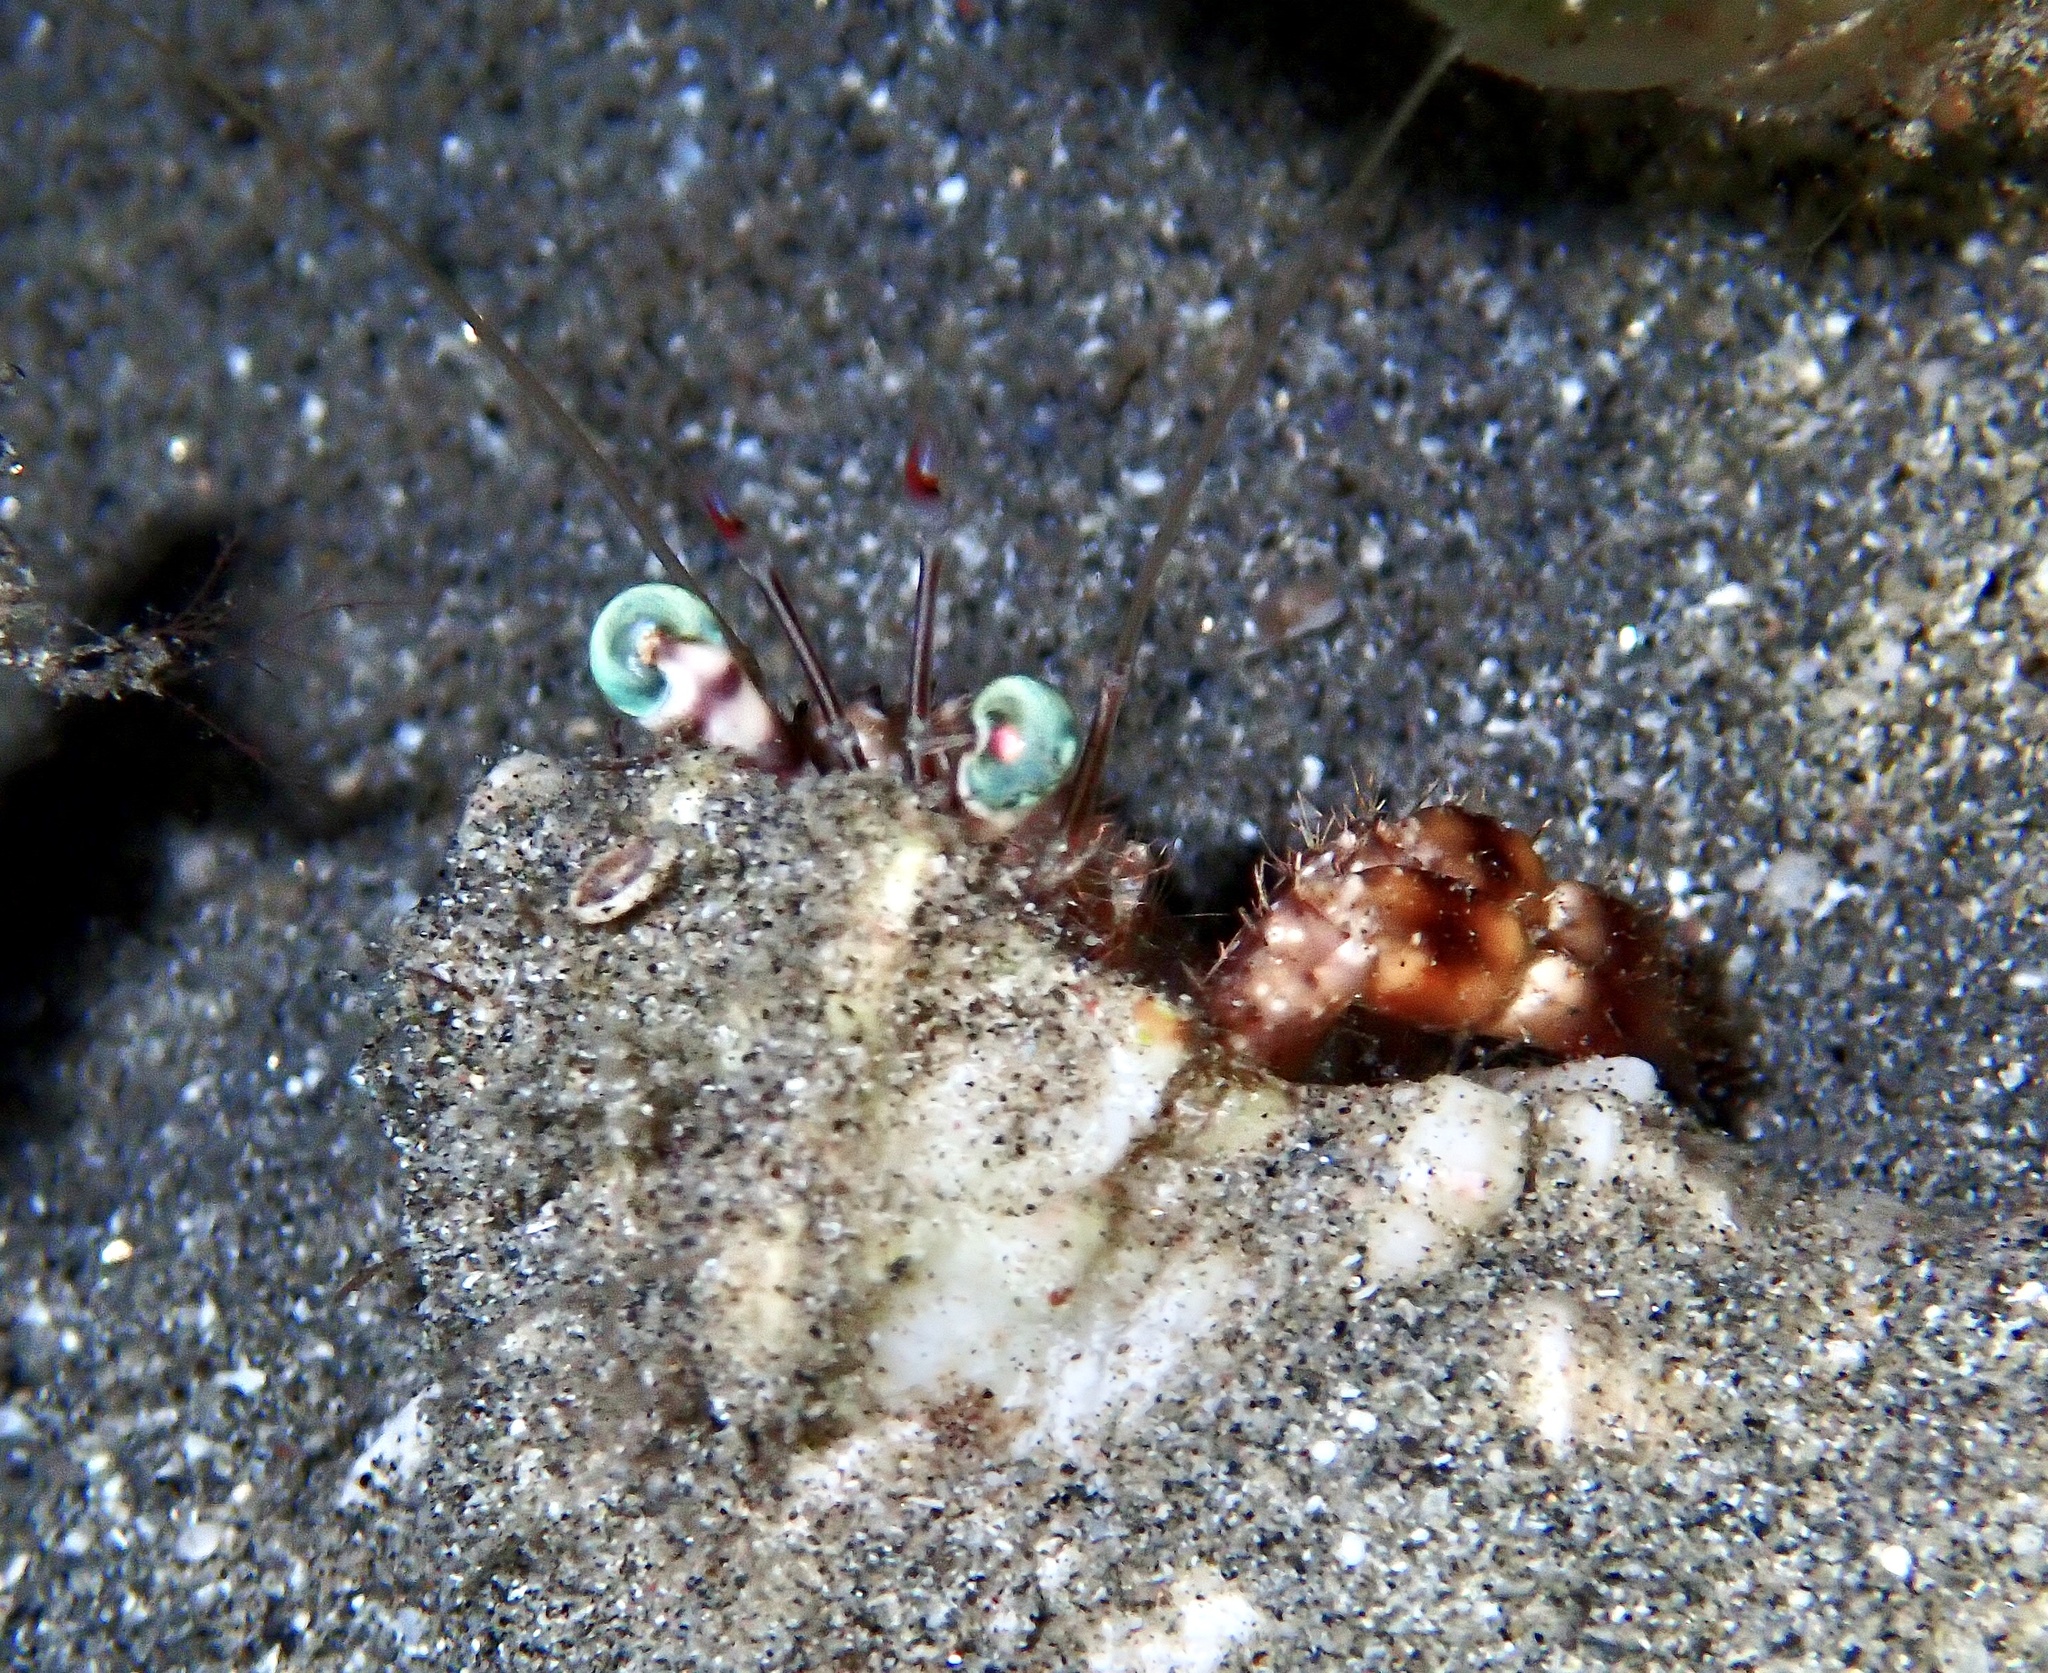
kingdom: Animalia
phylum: Arthropoda
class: Malacostraca
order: Decapoda
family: Diogenidae
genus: Dardanus
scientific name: Dardanus tinctor
